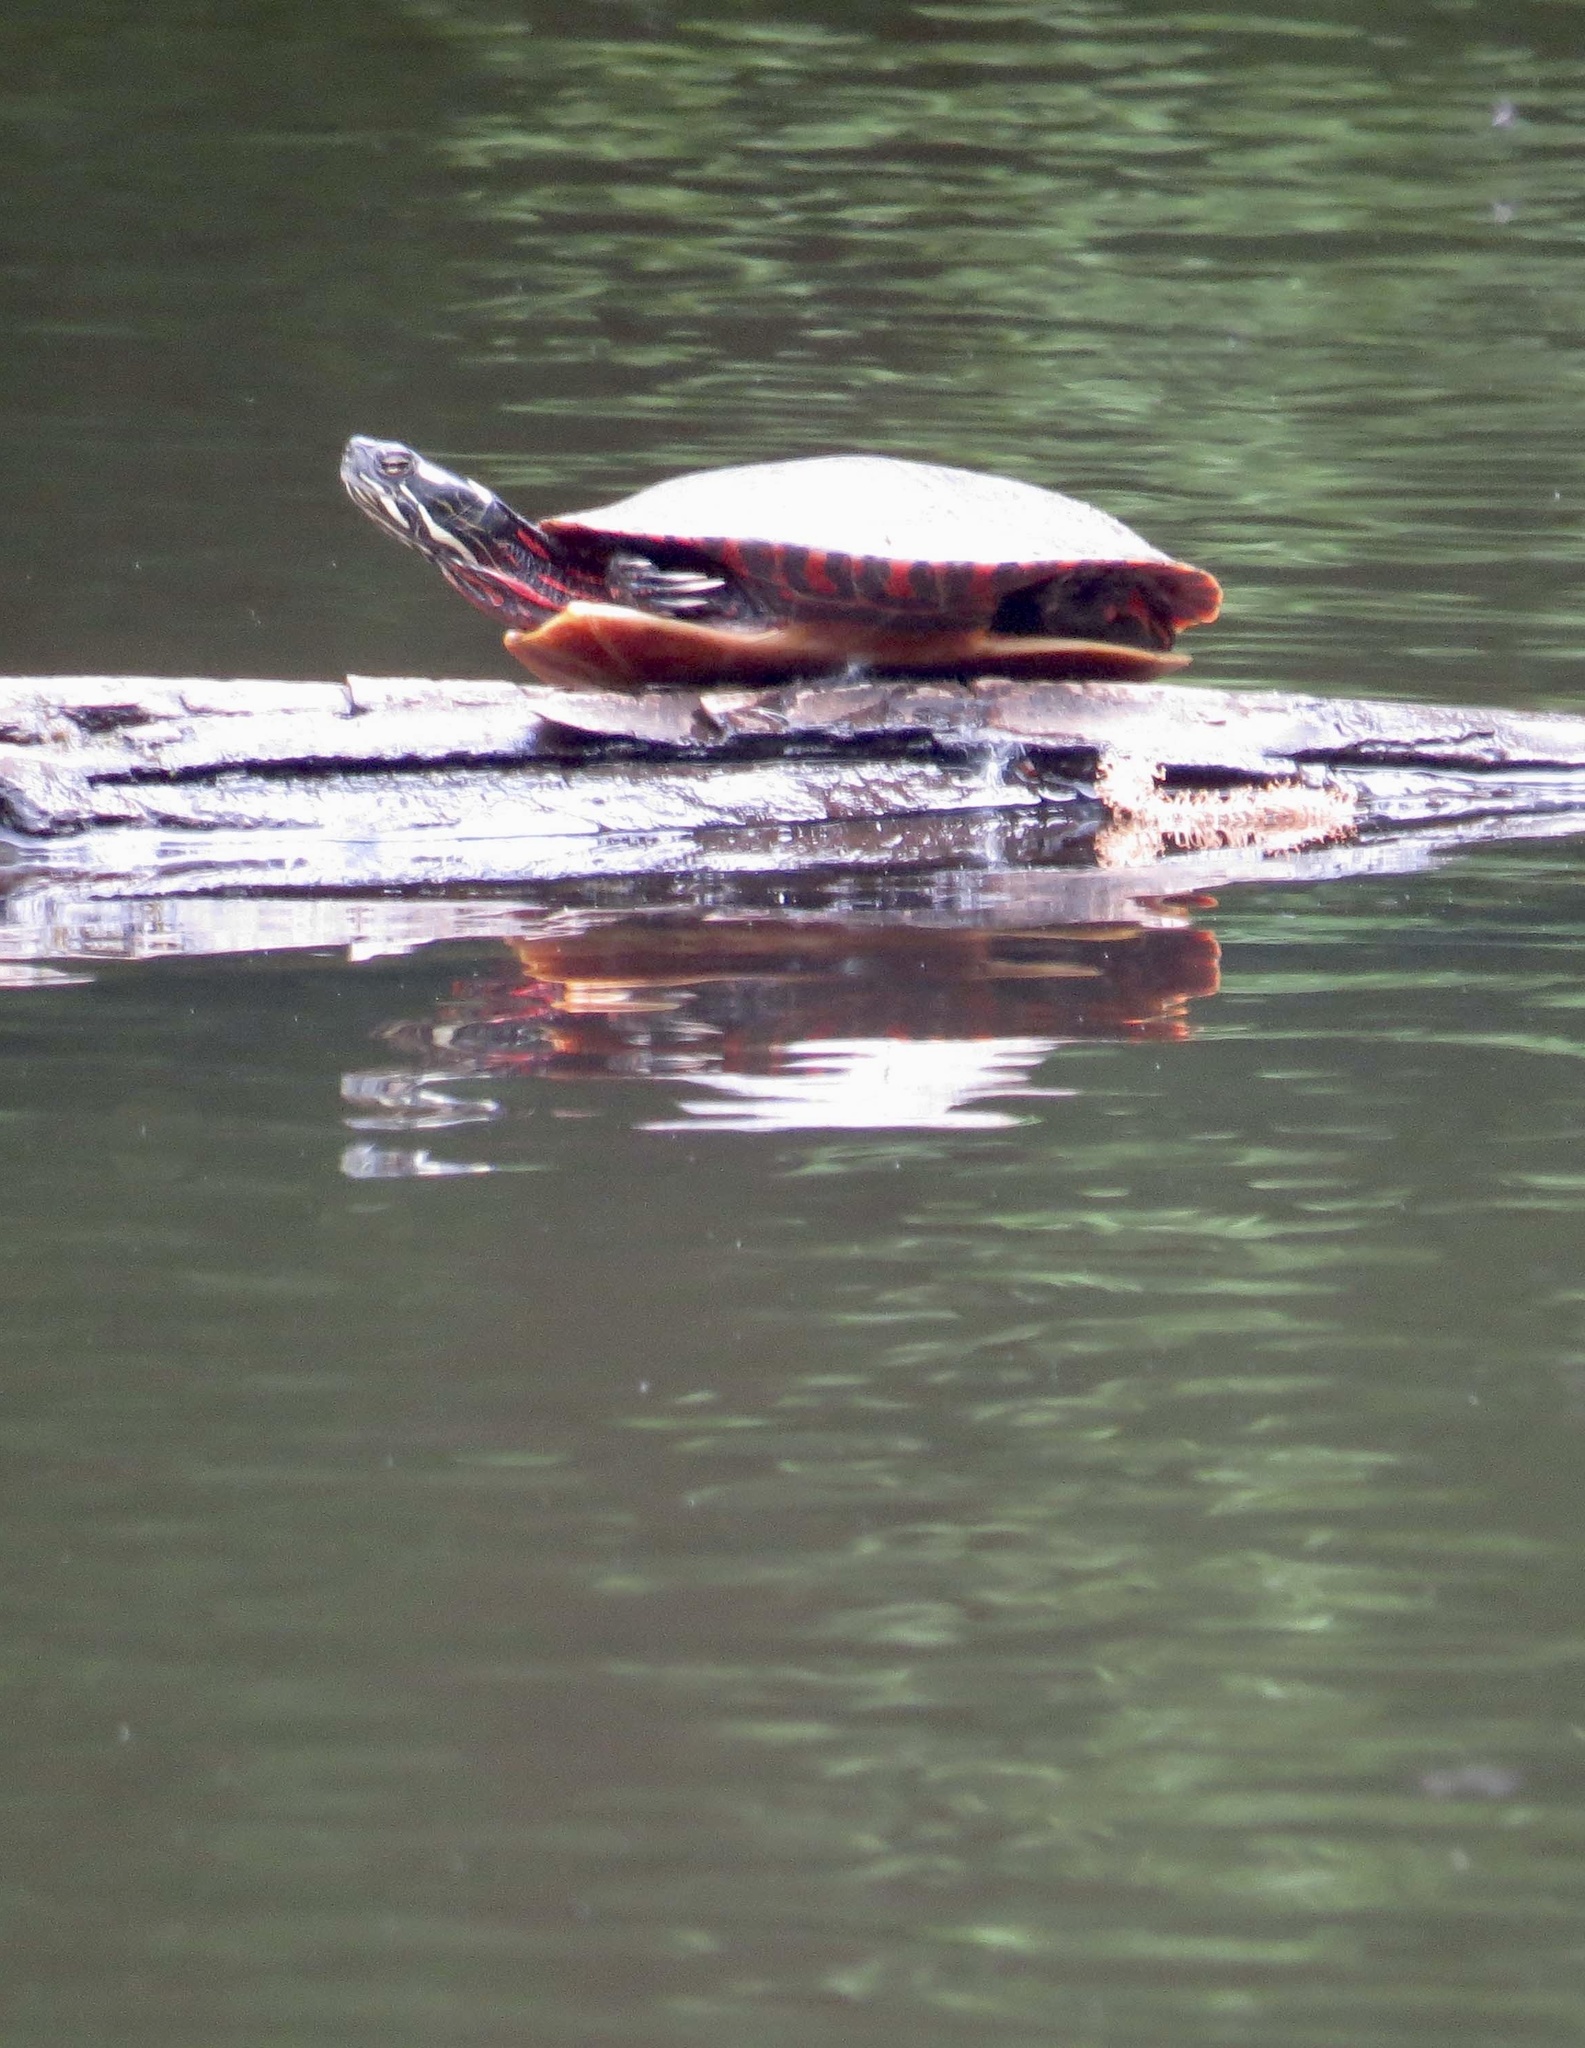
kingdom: Animalia
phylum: Chordata
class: Testudines
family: Emydidae
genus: Chrysemys
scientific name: Chrysemys picta
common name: Painted turtle
